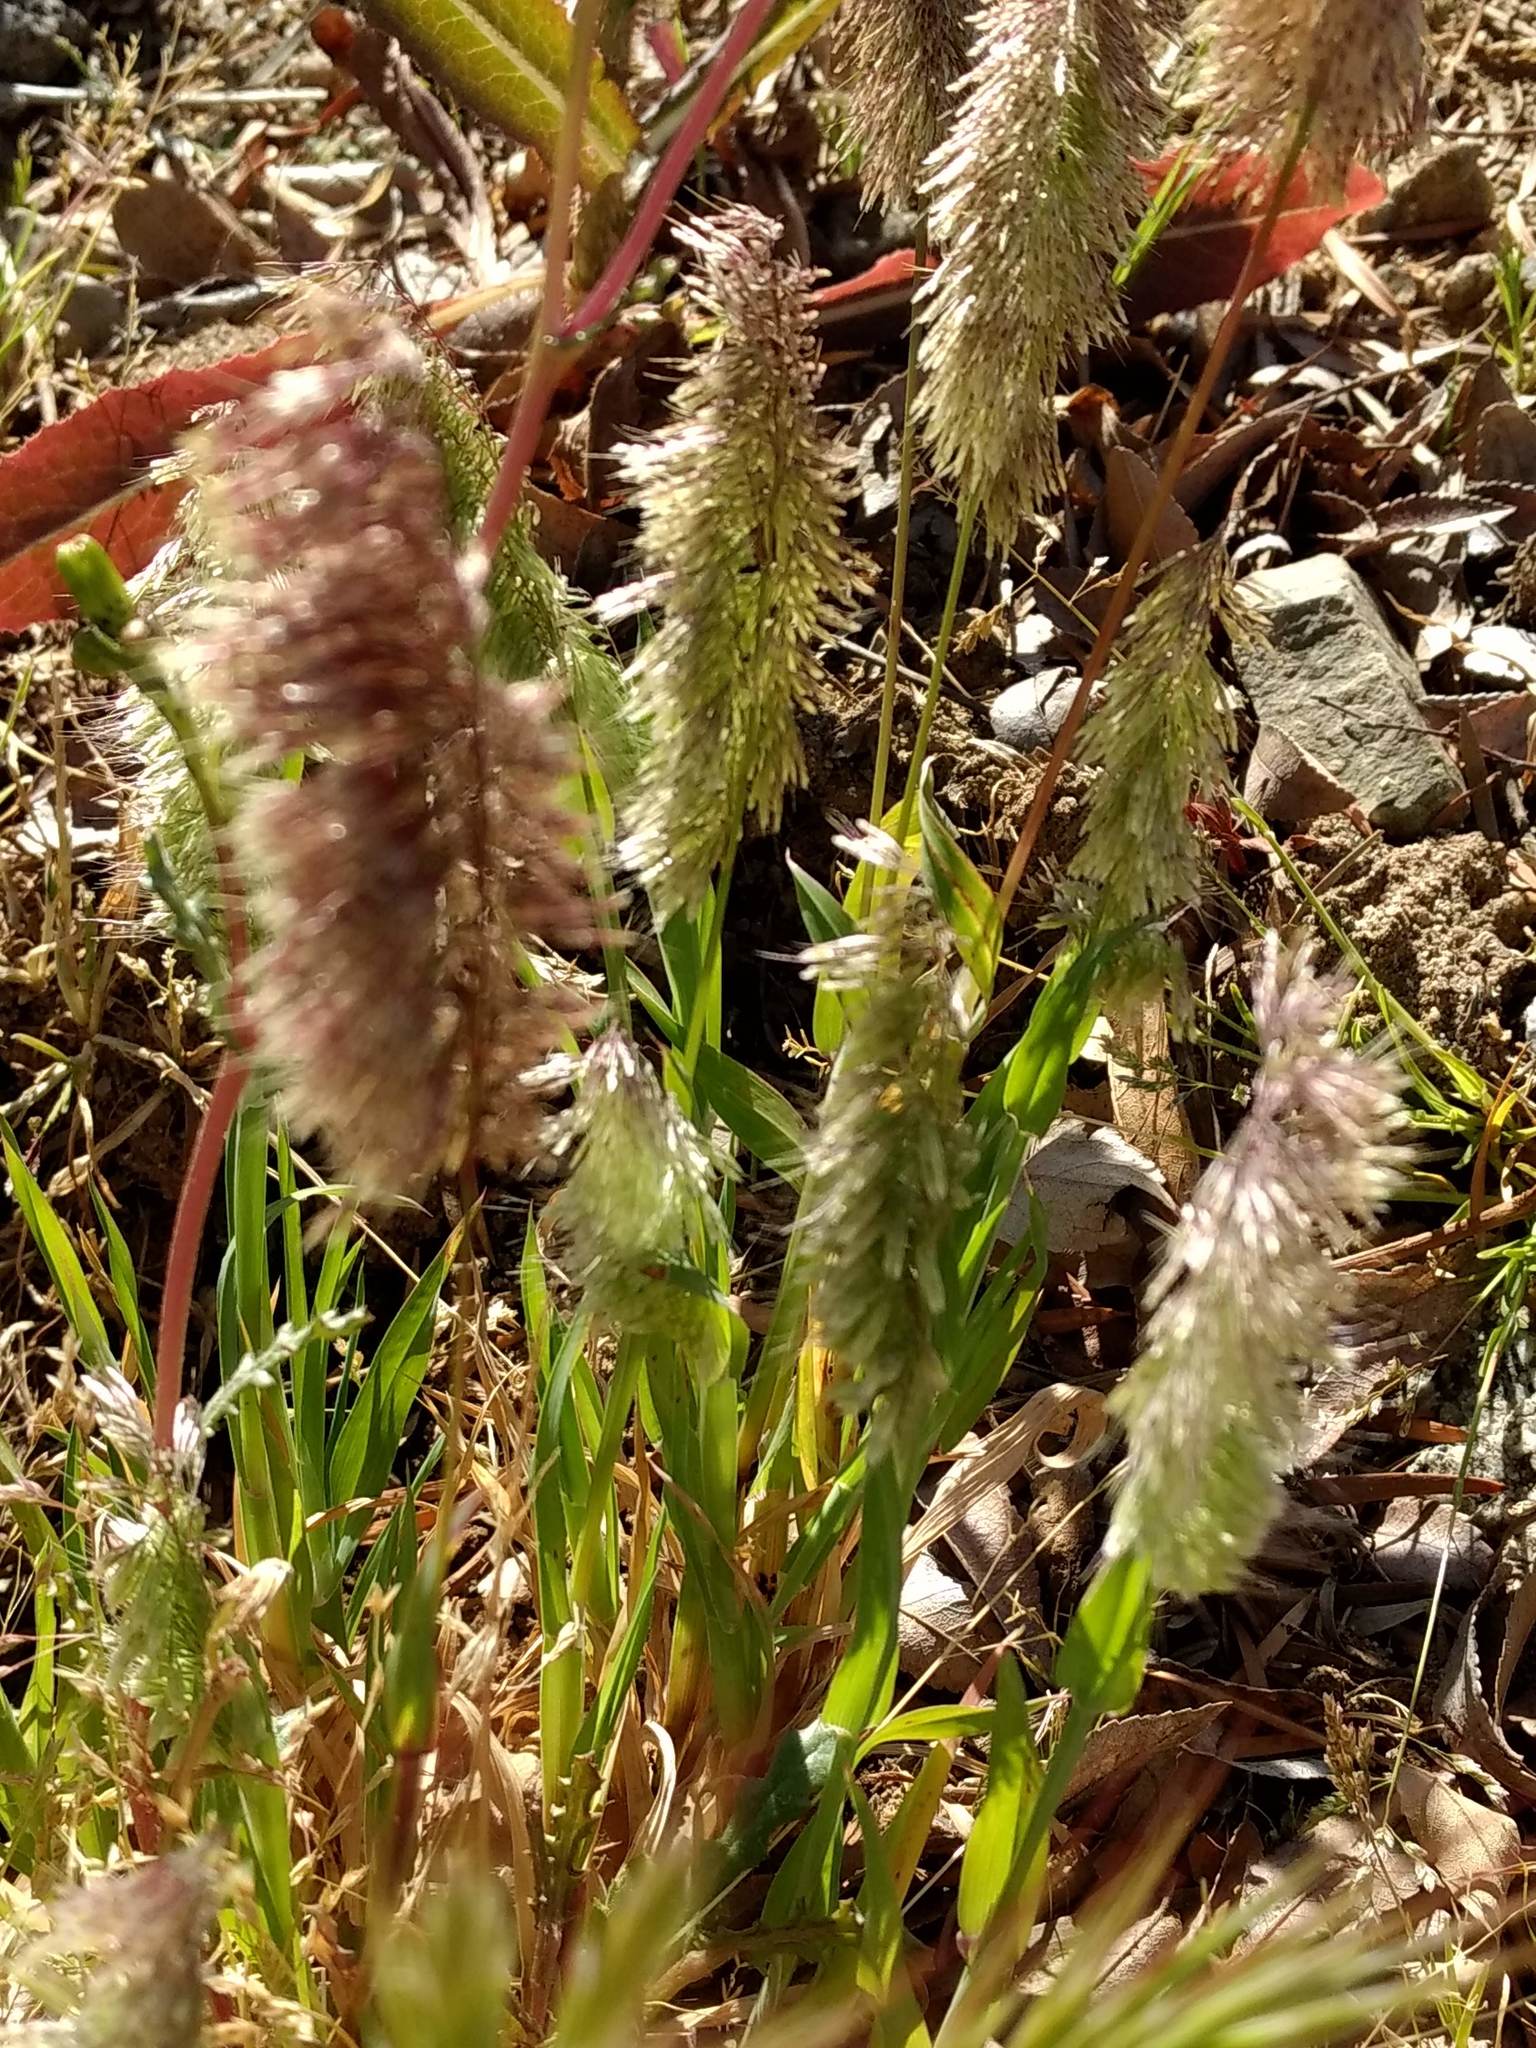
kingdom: Plantae
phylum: Tracheophyta
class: Liliopsida
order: Poales
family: Poaceae
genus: Lamarckia
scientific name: Lamarckia aurea
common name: Golden dog's-tail
